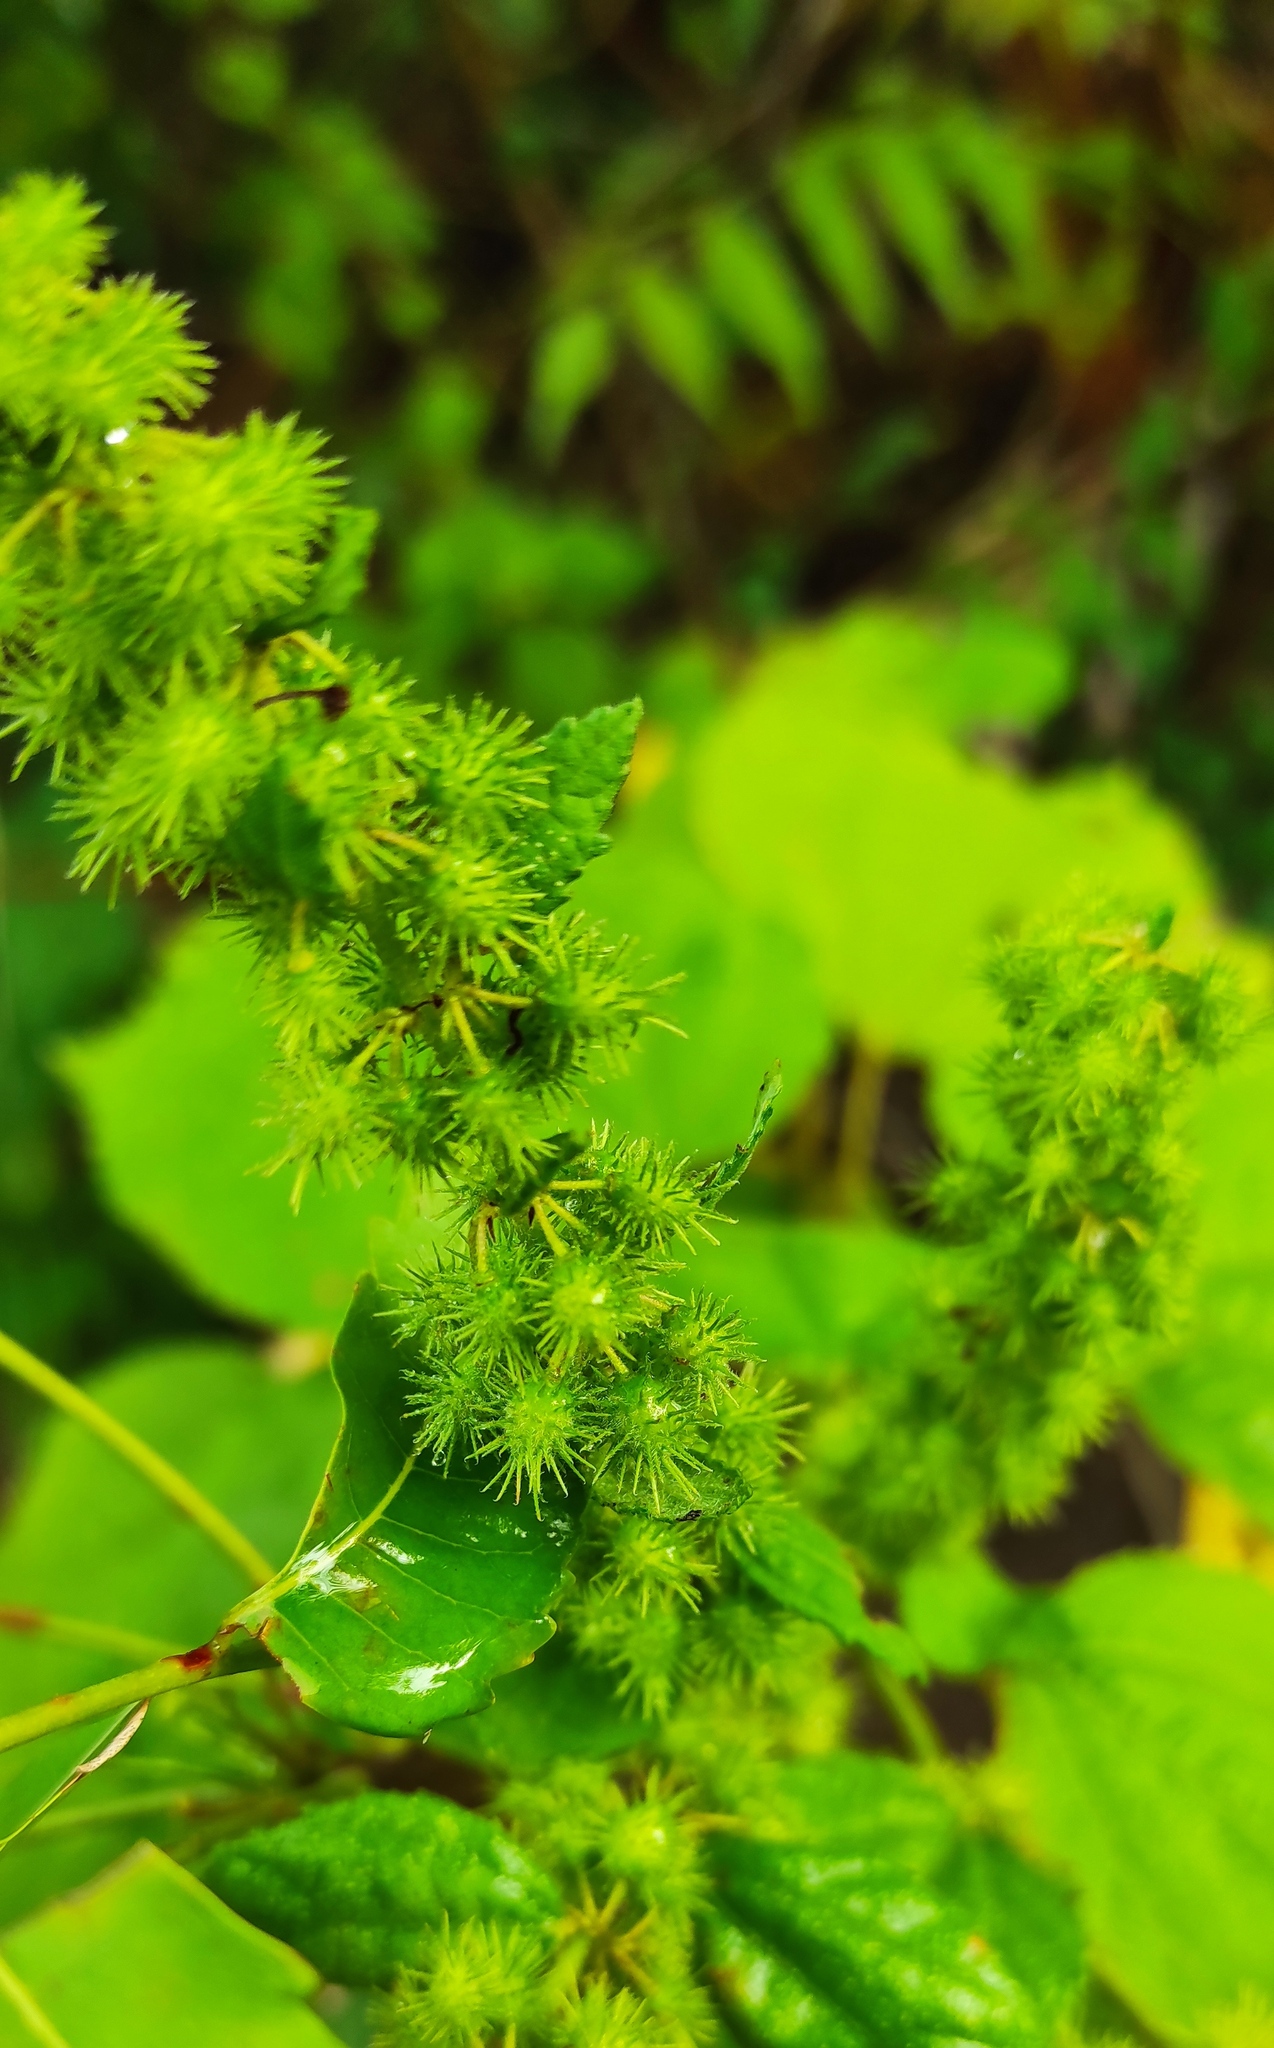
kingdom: Plantae
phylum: Tracheophyta
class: Magnoliopsida
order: Malvales
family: Malvaceae
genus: Triumfetta
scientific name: Triumfetta semitriloba
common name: Sacramento burbark
